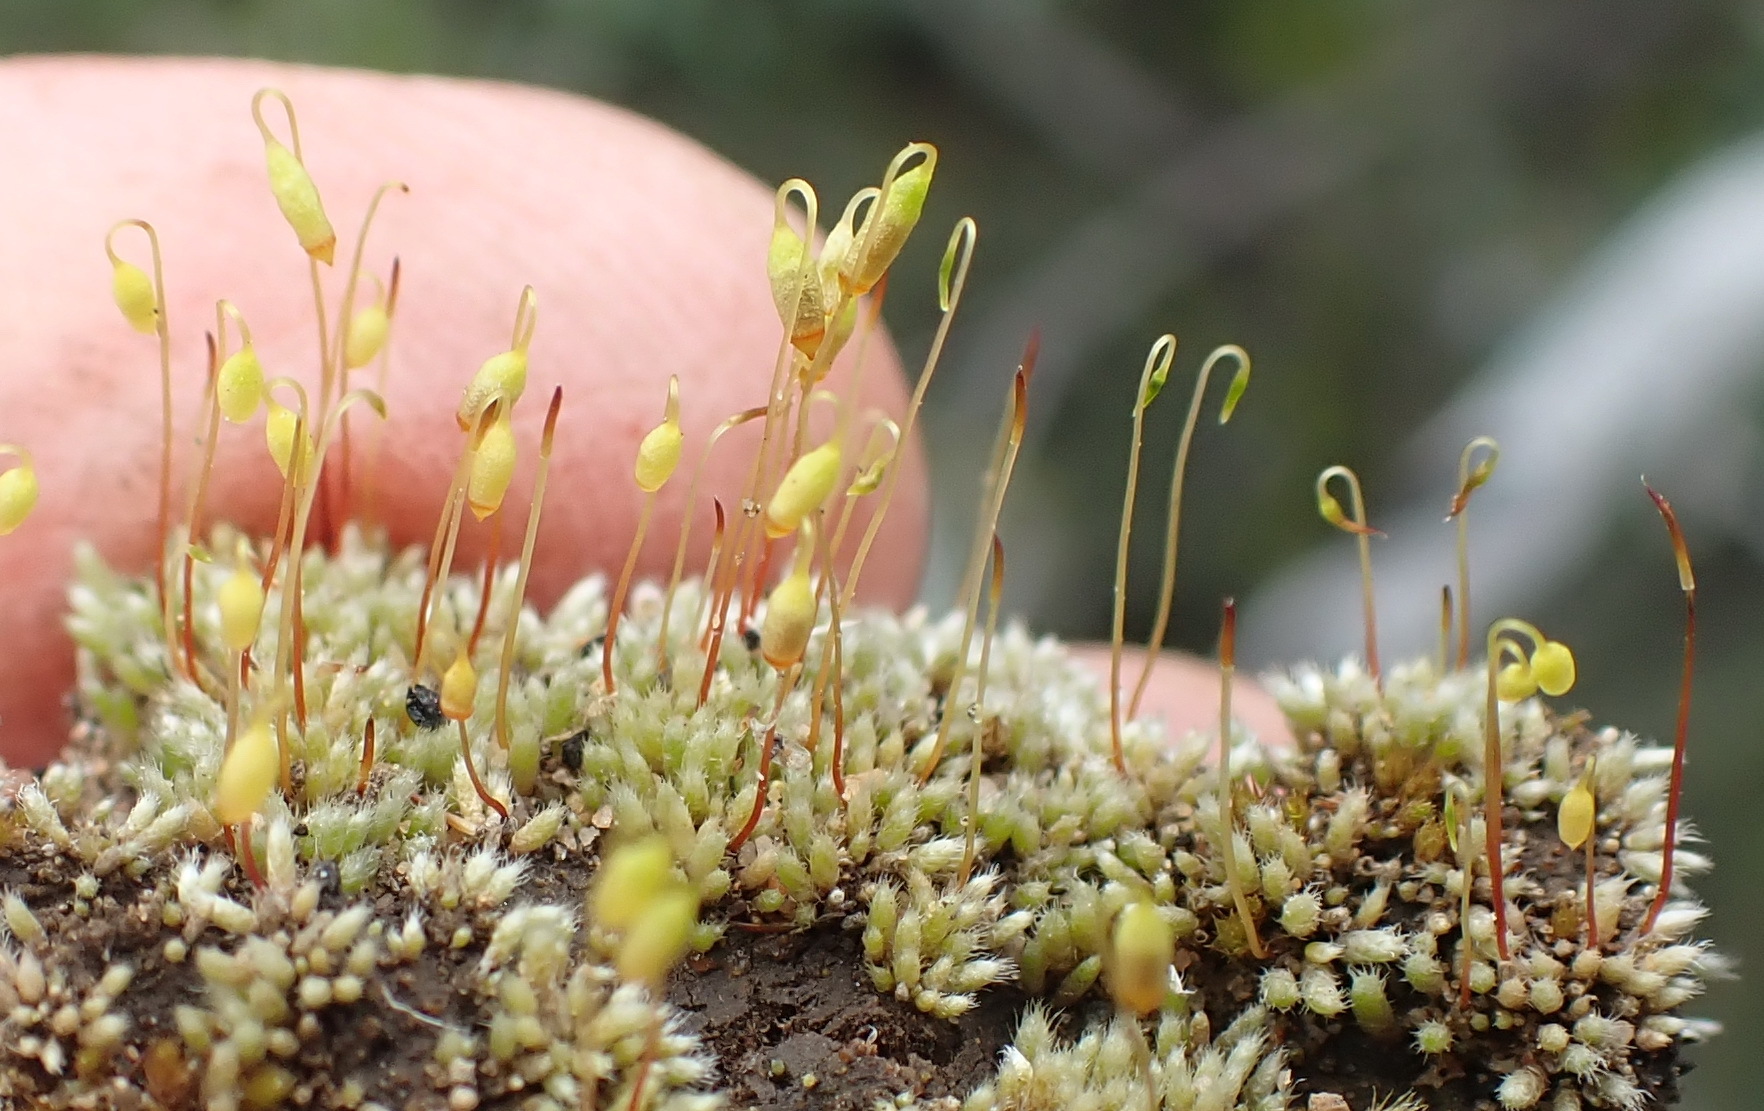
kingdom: Plantae
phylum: Bryophyta
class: Bryopsida
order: Bryales
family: Bryaceae
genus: Bryum
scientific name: Bryum argenteum
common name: Silver-moss
